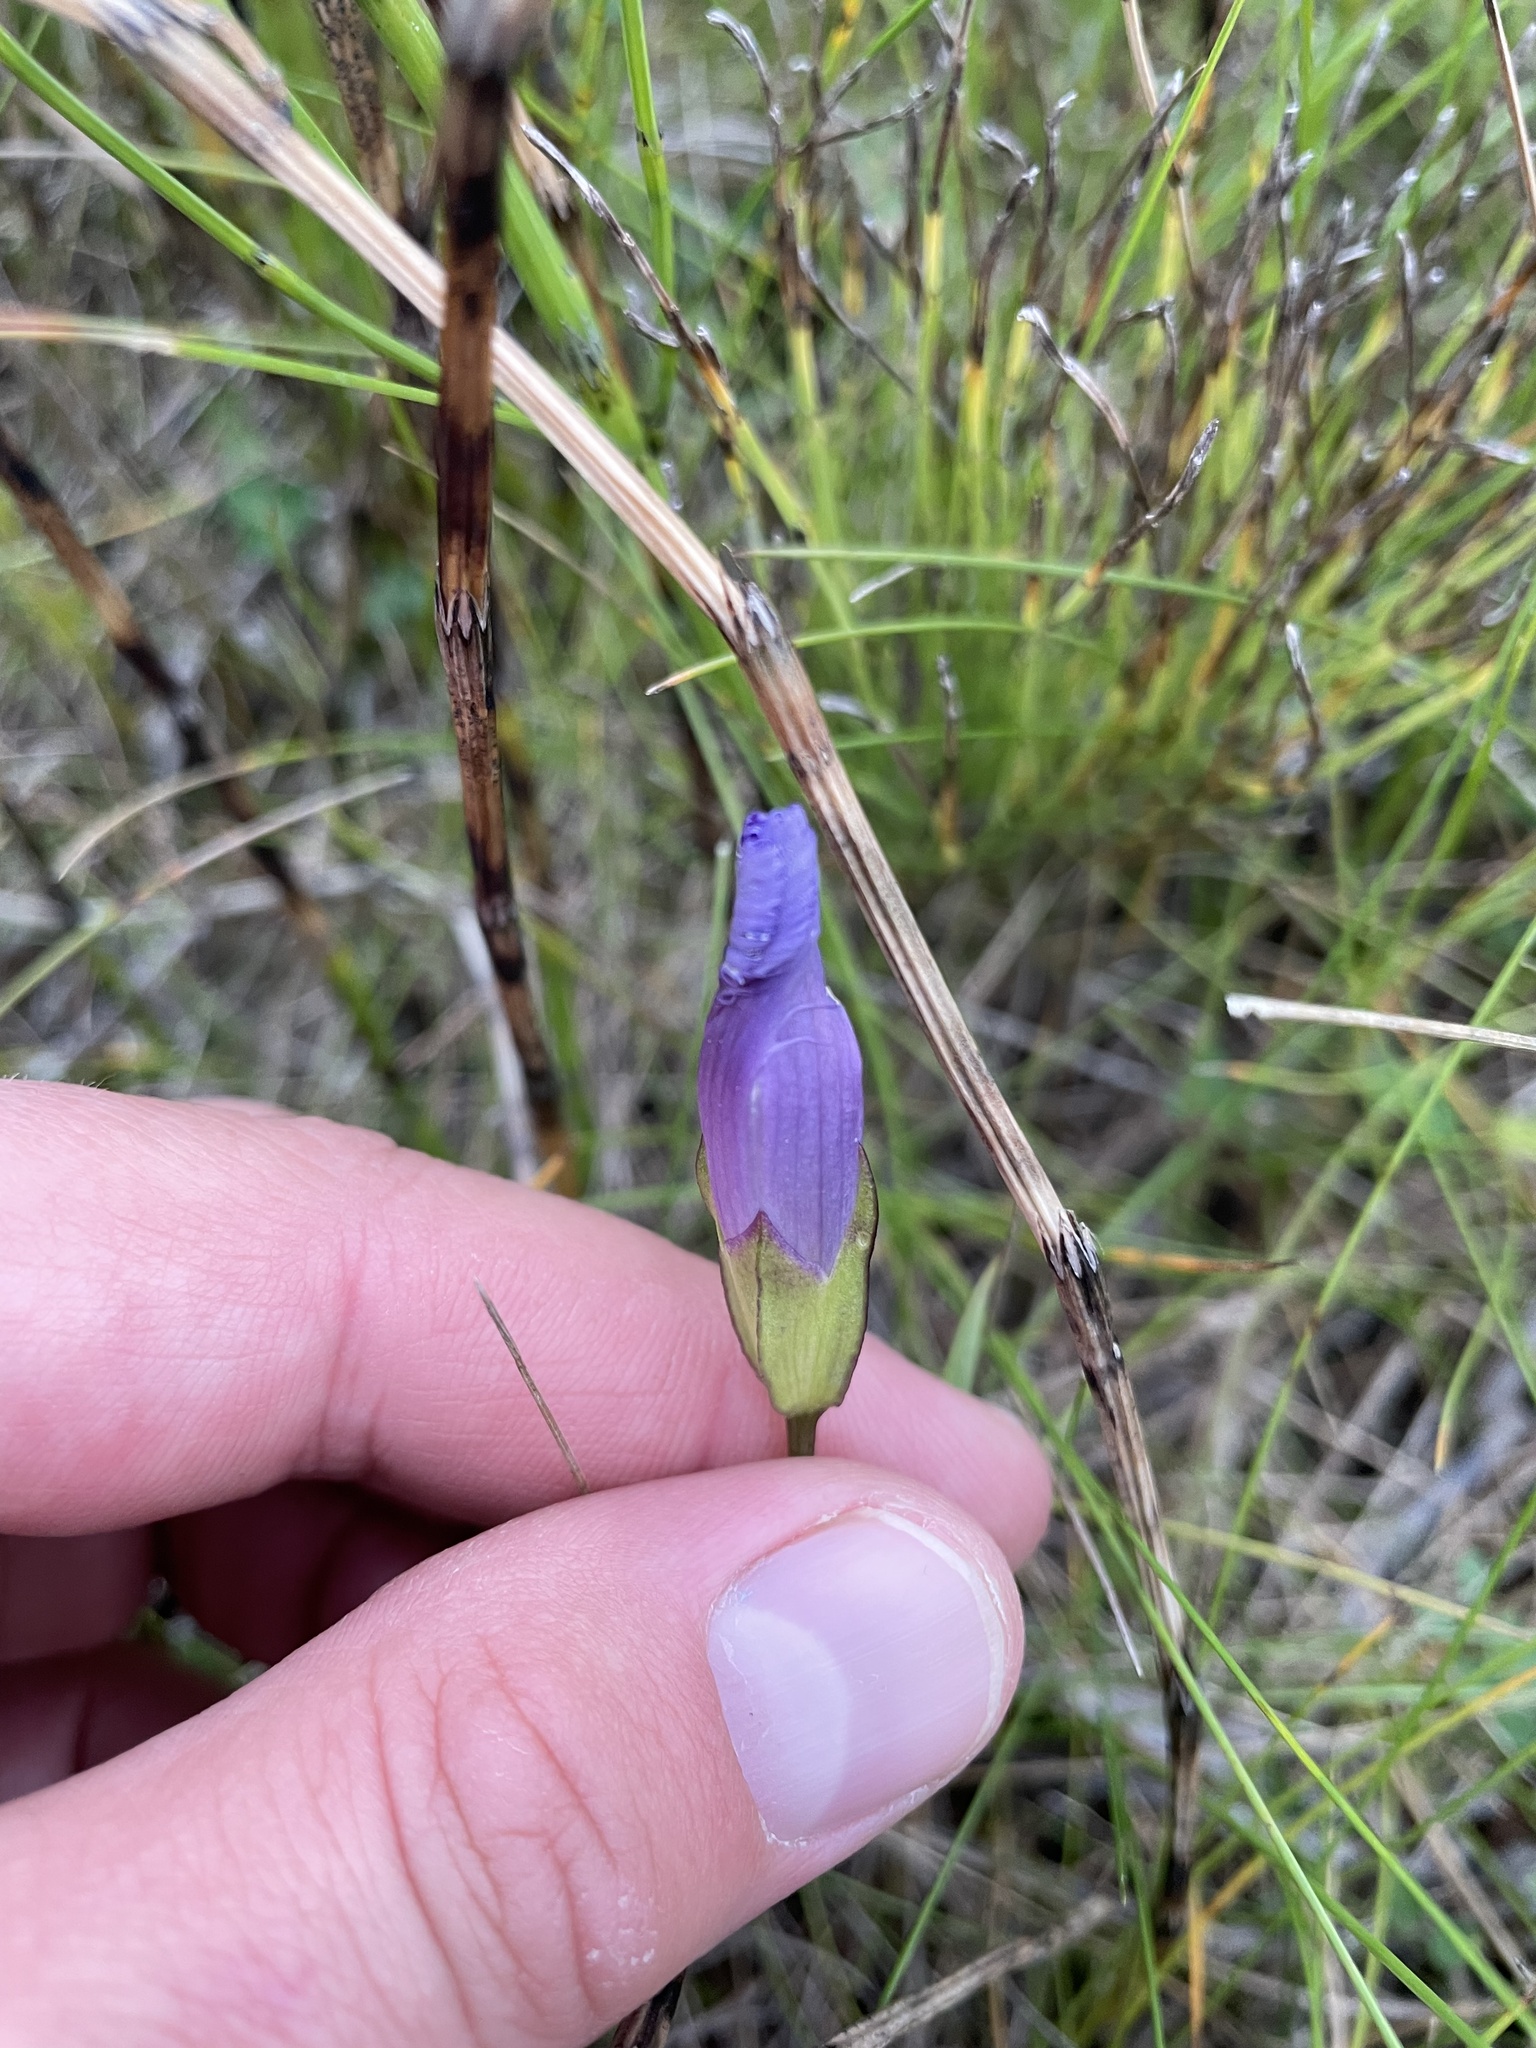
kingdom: Plantae
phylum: Tracheophyta
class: Magnoliopsida
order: Gentianales
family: Gentianaceae
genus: Gentianopsis
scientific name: Gentianopsis virgata
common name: Lesser fringed-gentian
